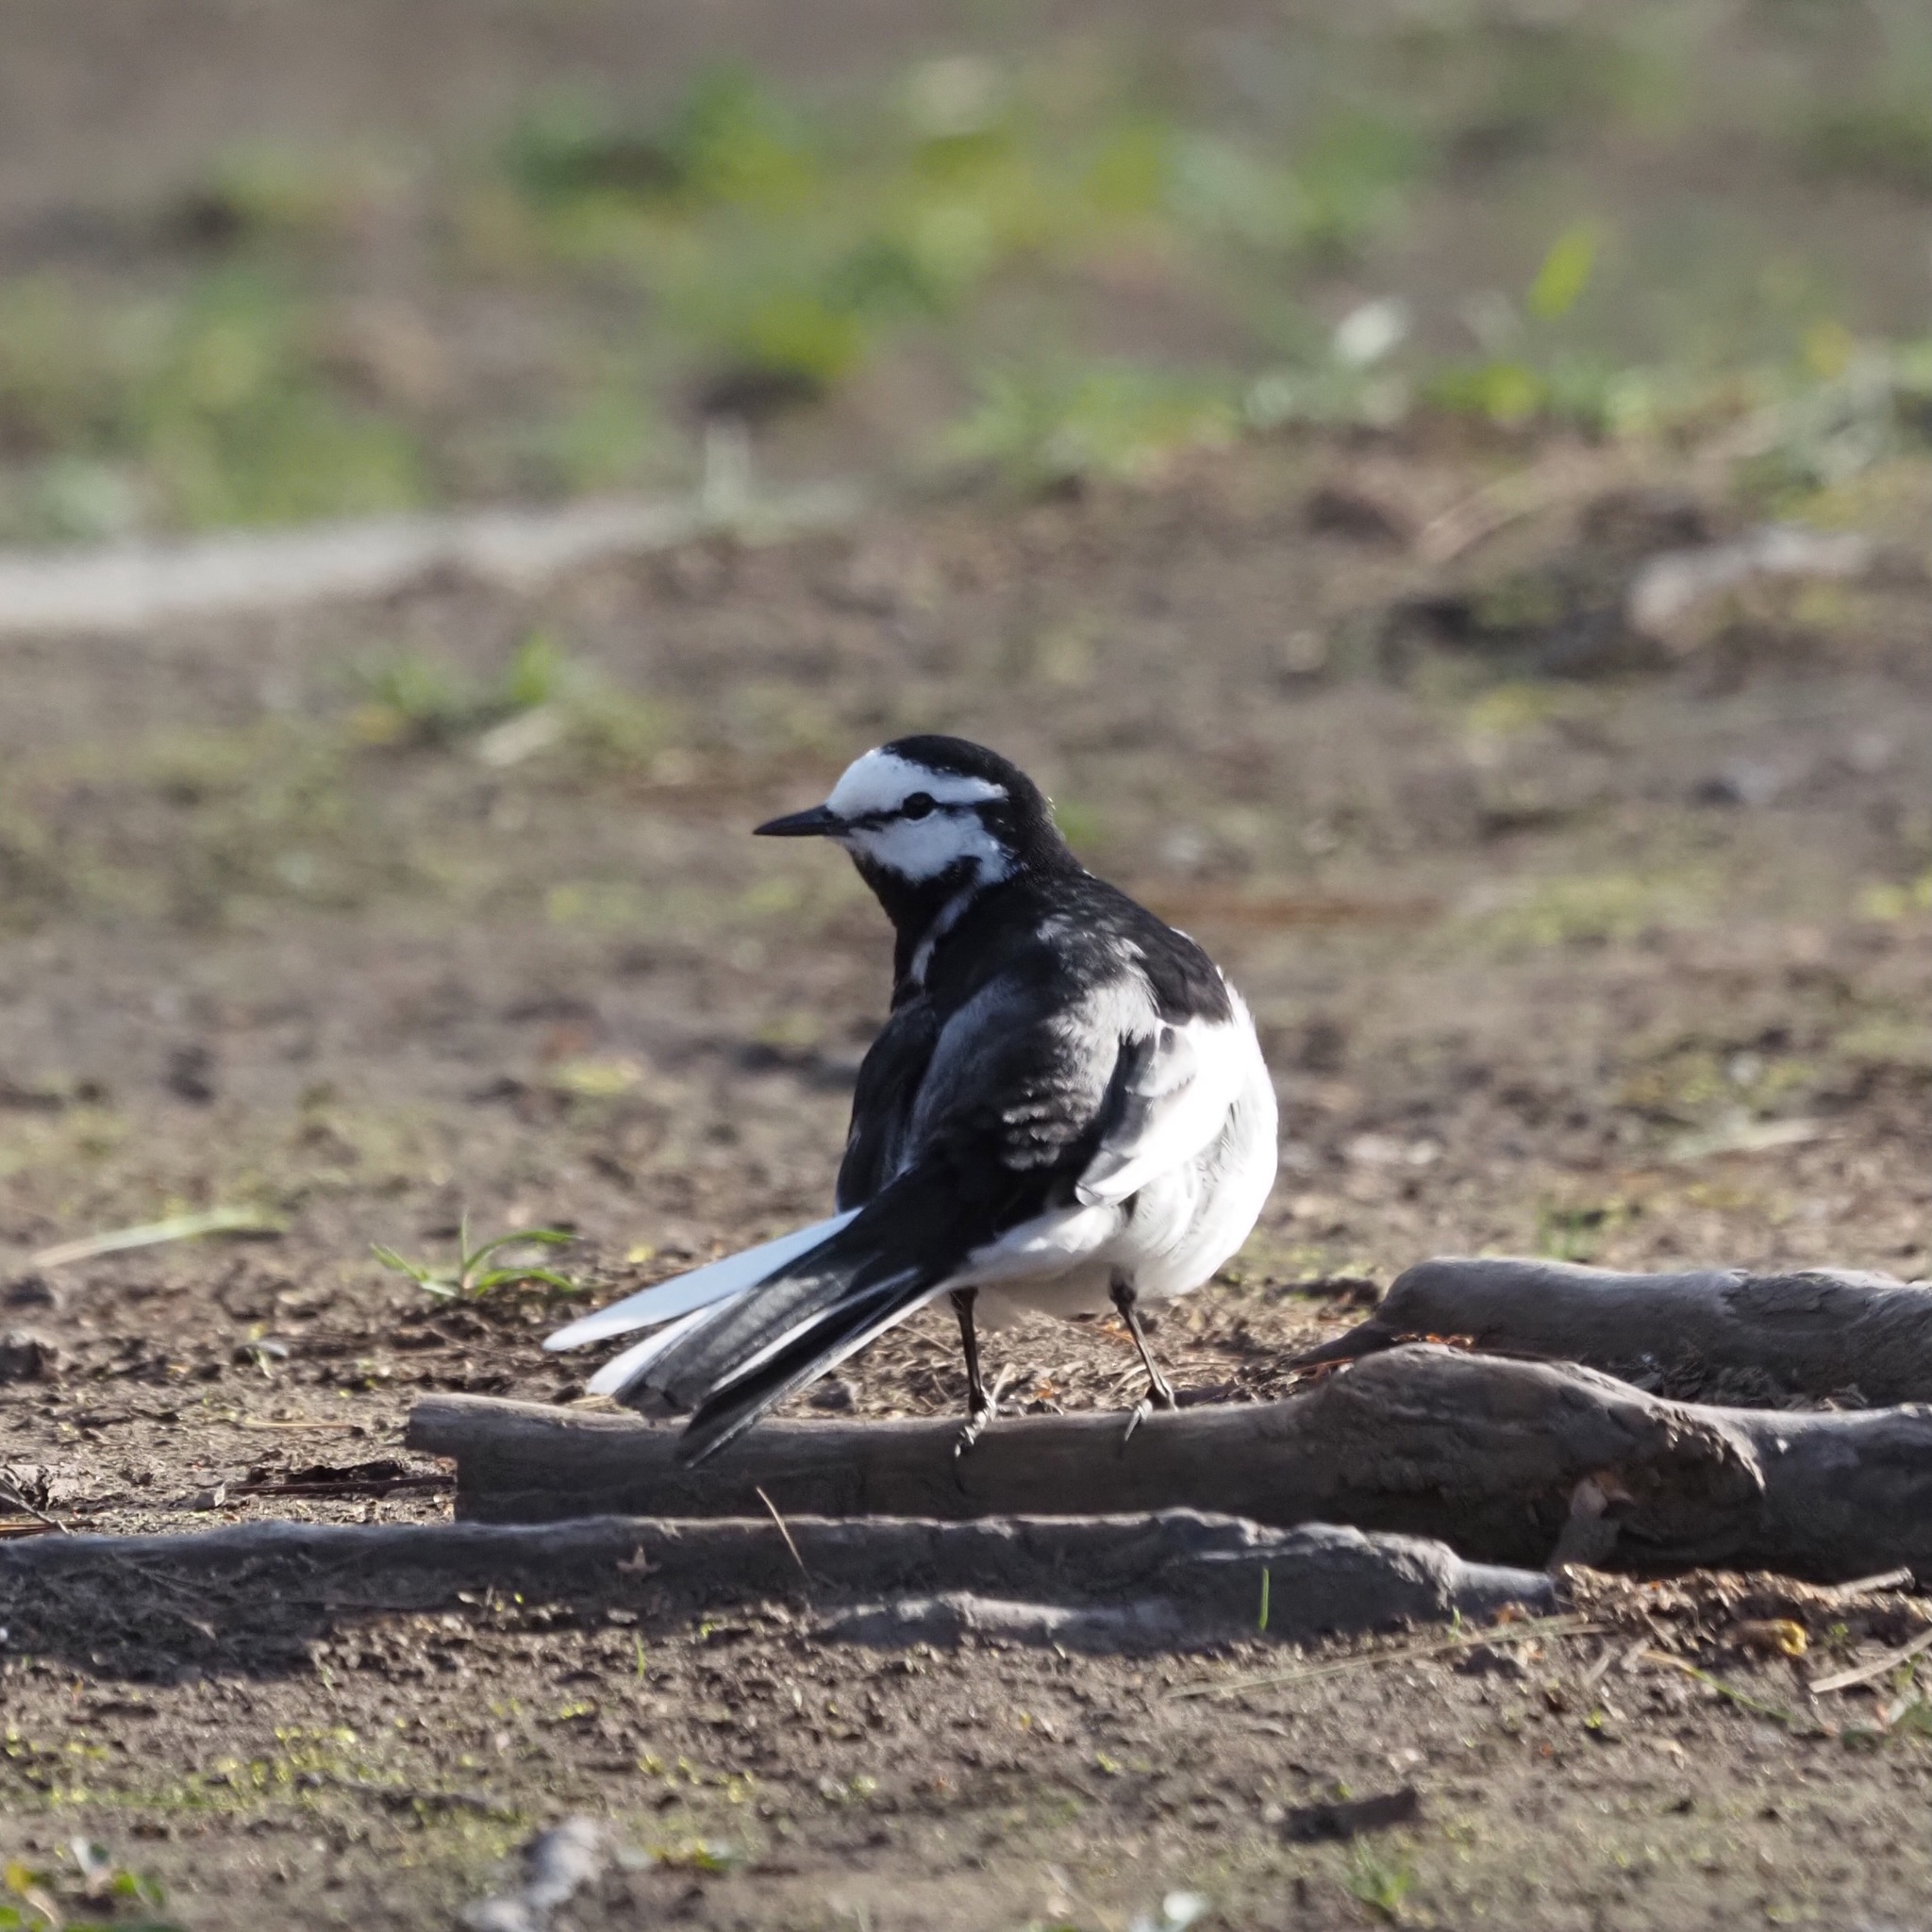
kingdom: Animalia
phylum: Chordata
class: Aves
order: Passeriformes
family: Motacillidae
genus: Motacilla
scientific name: Motacilla alba
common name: White wagtail
